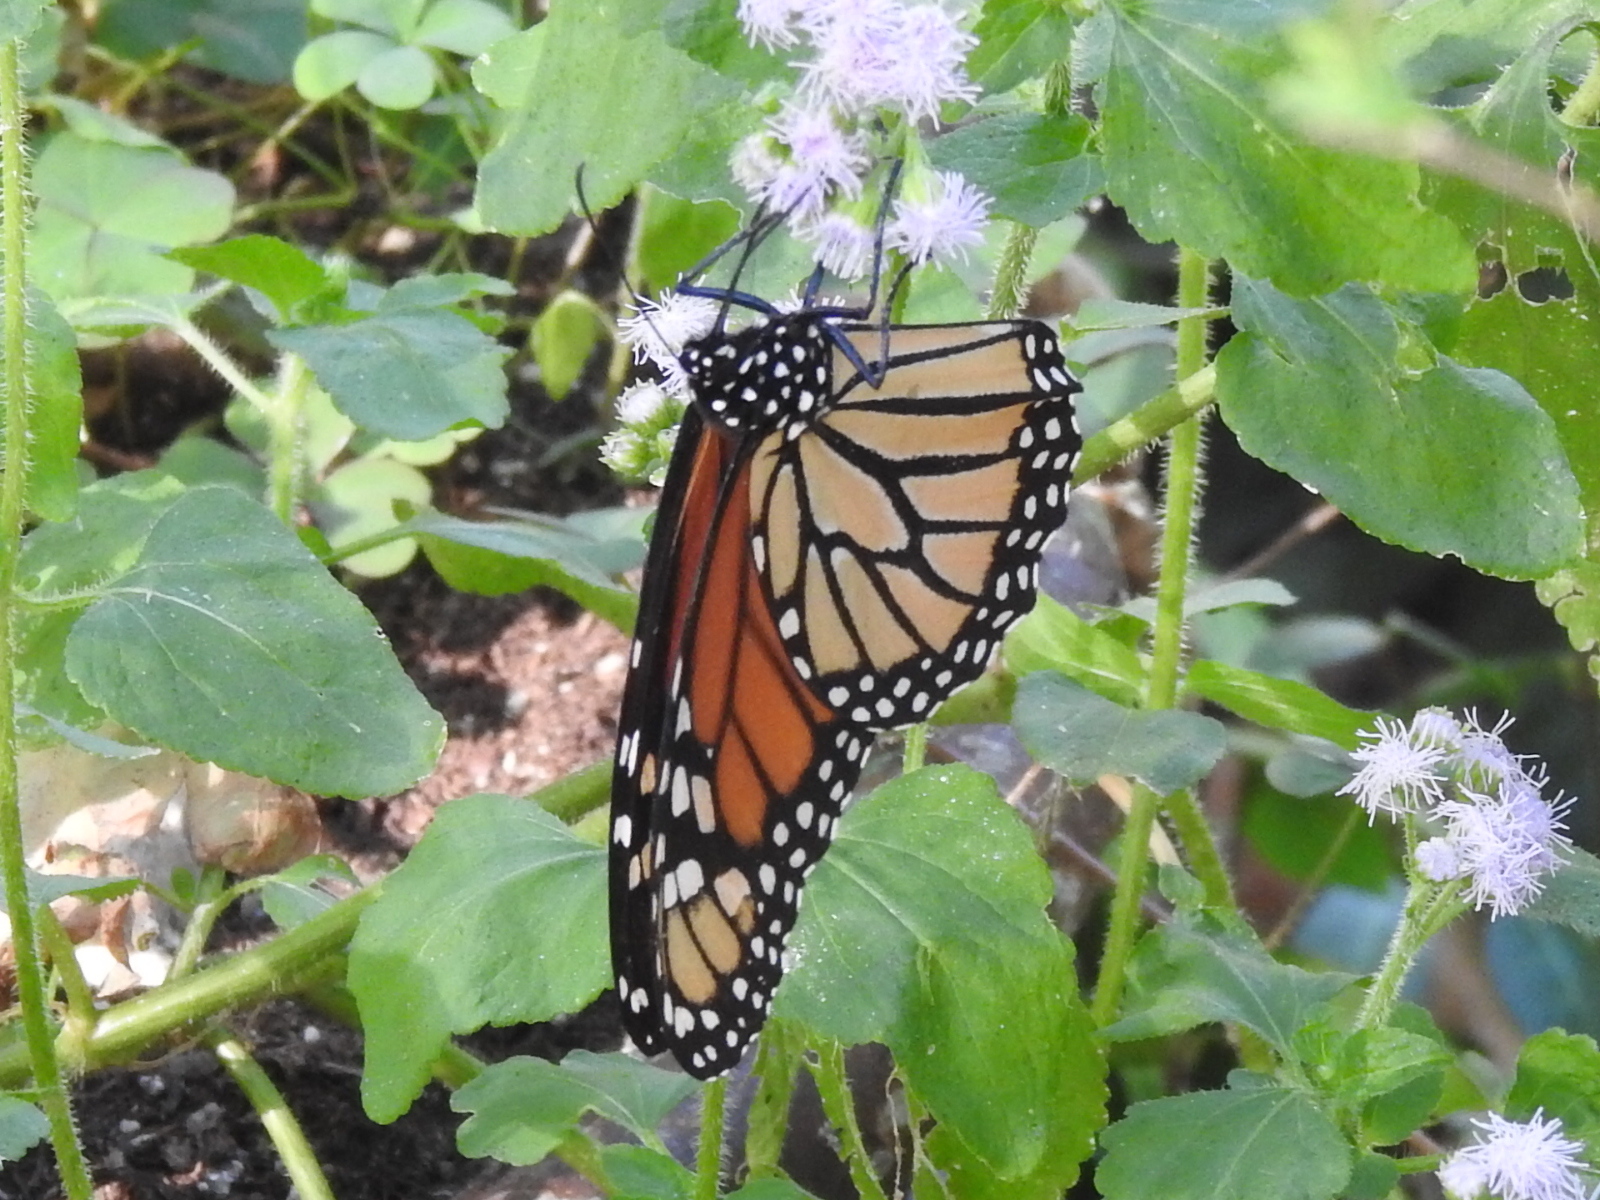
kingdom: Animalia
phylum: Arthropoda
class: Insecta
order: Lepidoptera
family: Nymphalidae
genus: Danaus
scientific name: Danaus plexippus
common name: Monarch
